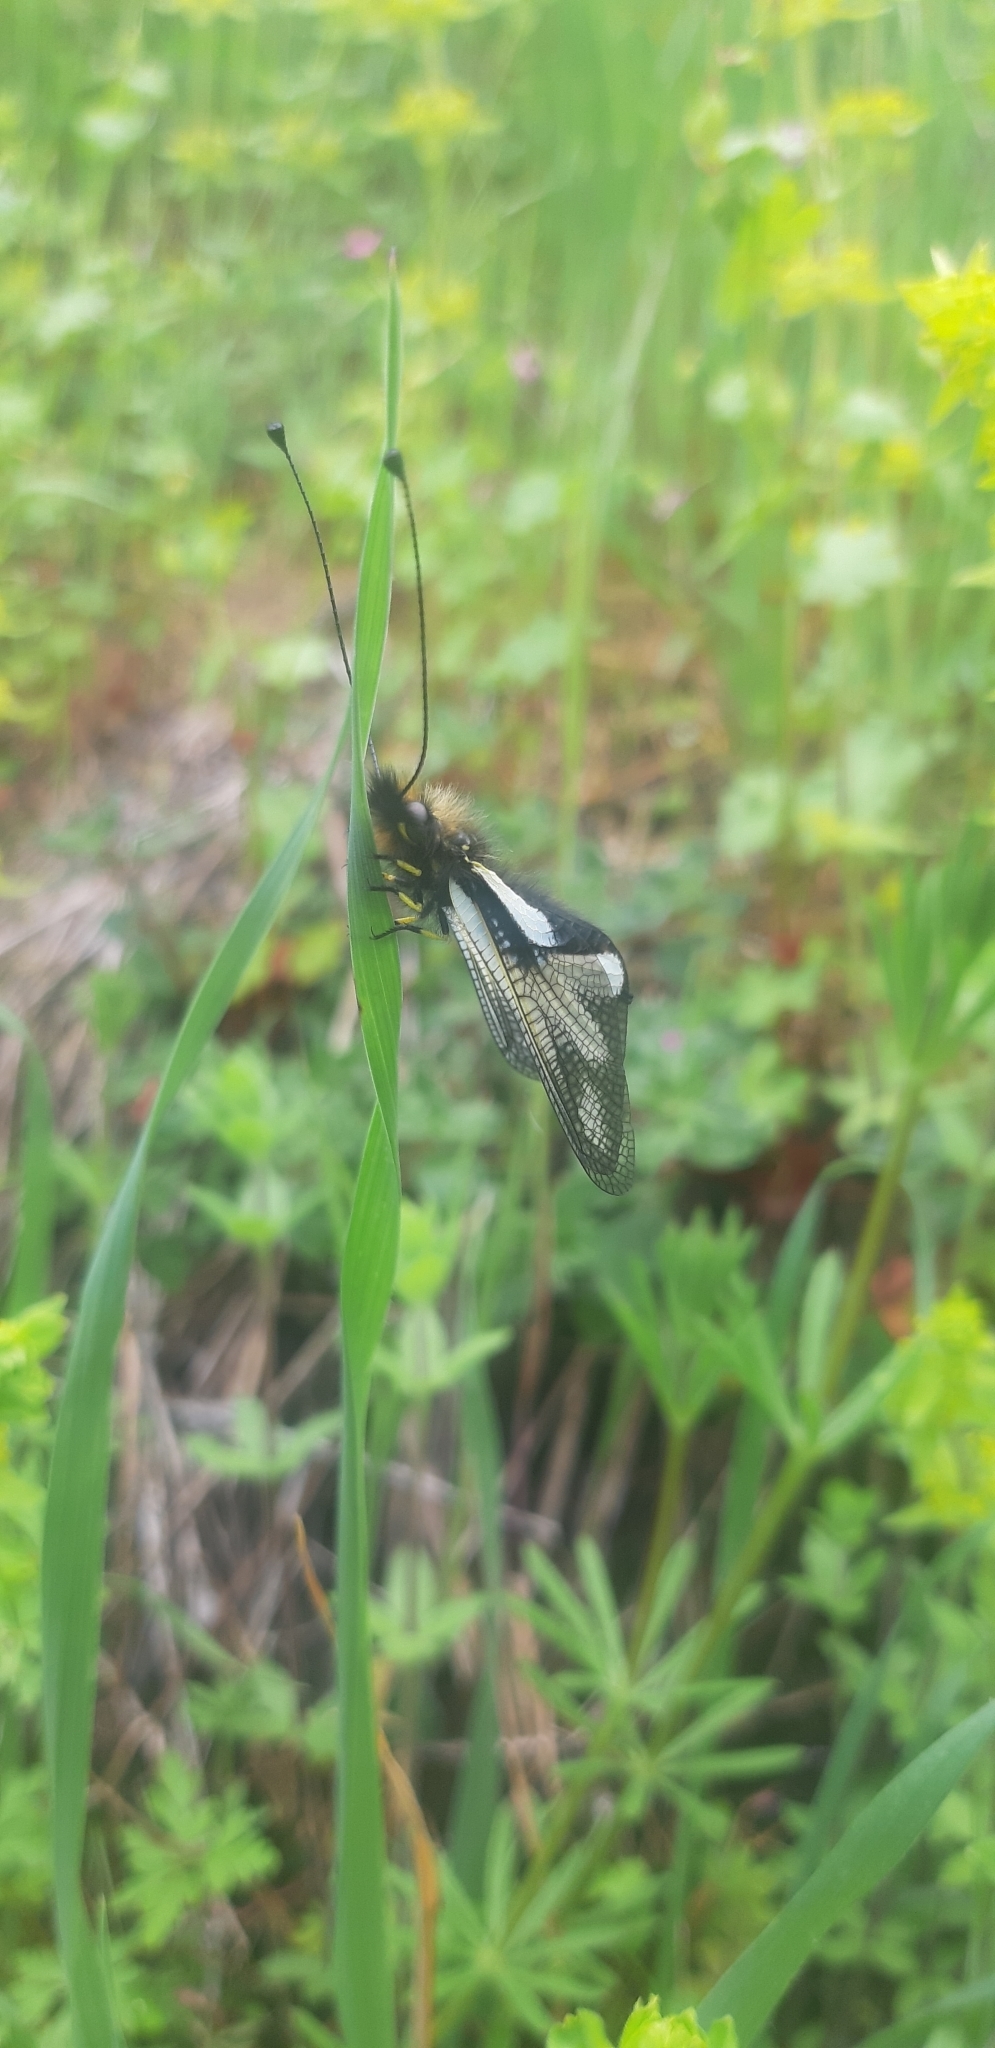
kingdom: Animalia
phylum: Arthropoda
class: Insecta
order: Neuroptera
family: Ascalaphidae
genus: Libelloides
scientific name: Libelloides coccajus
